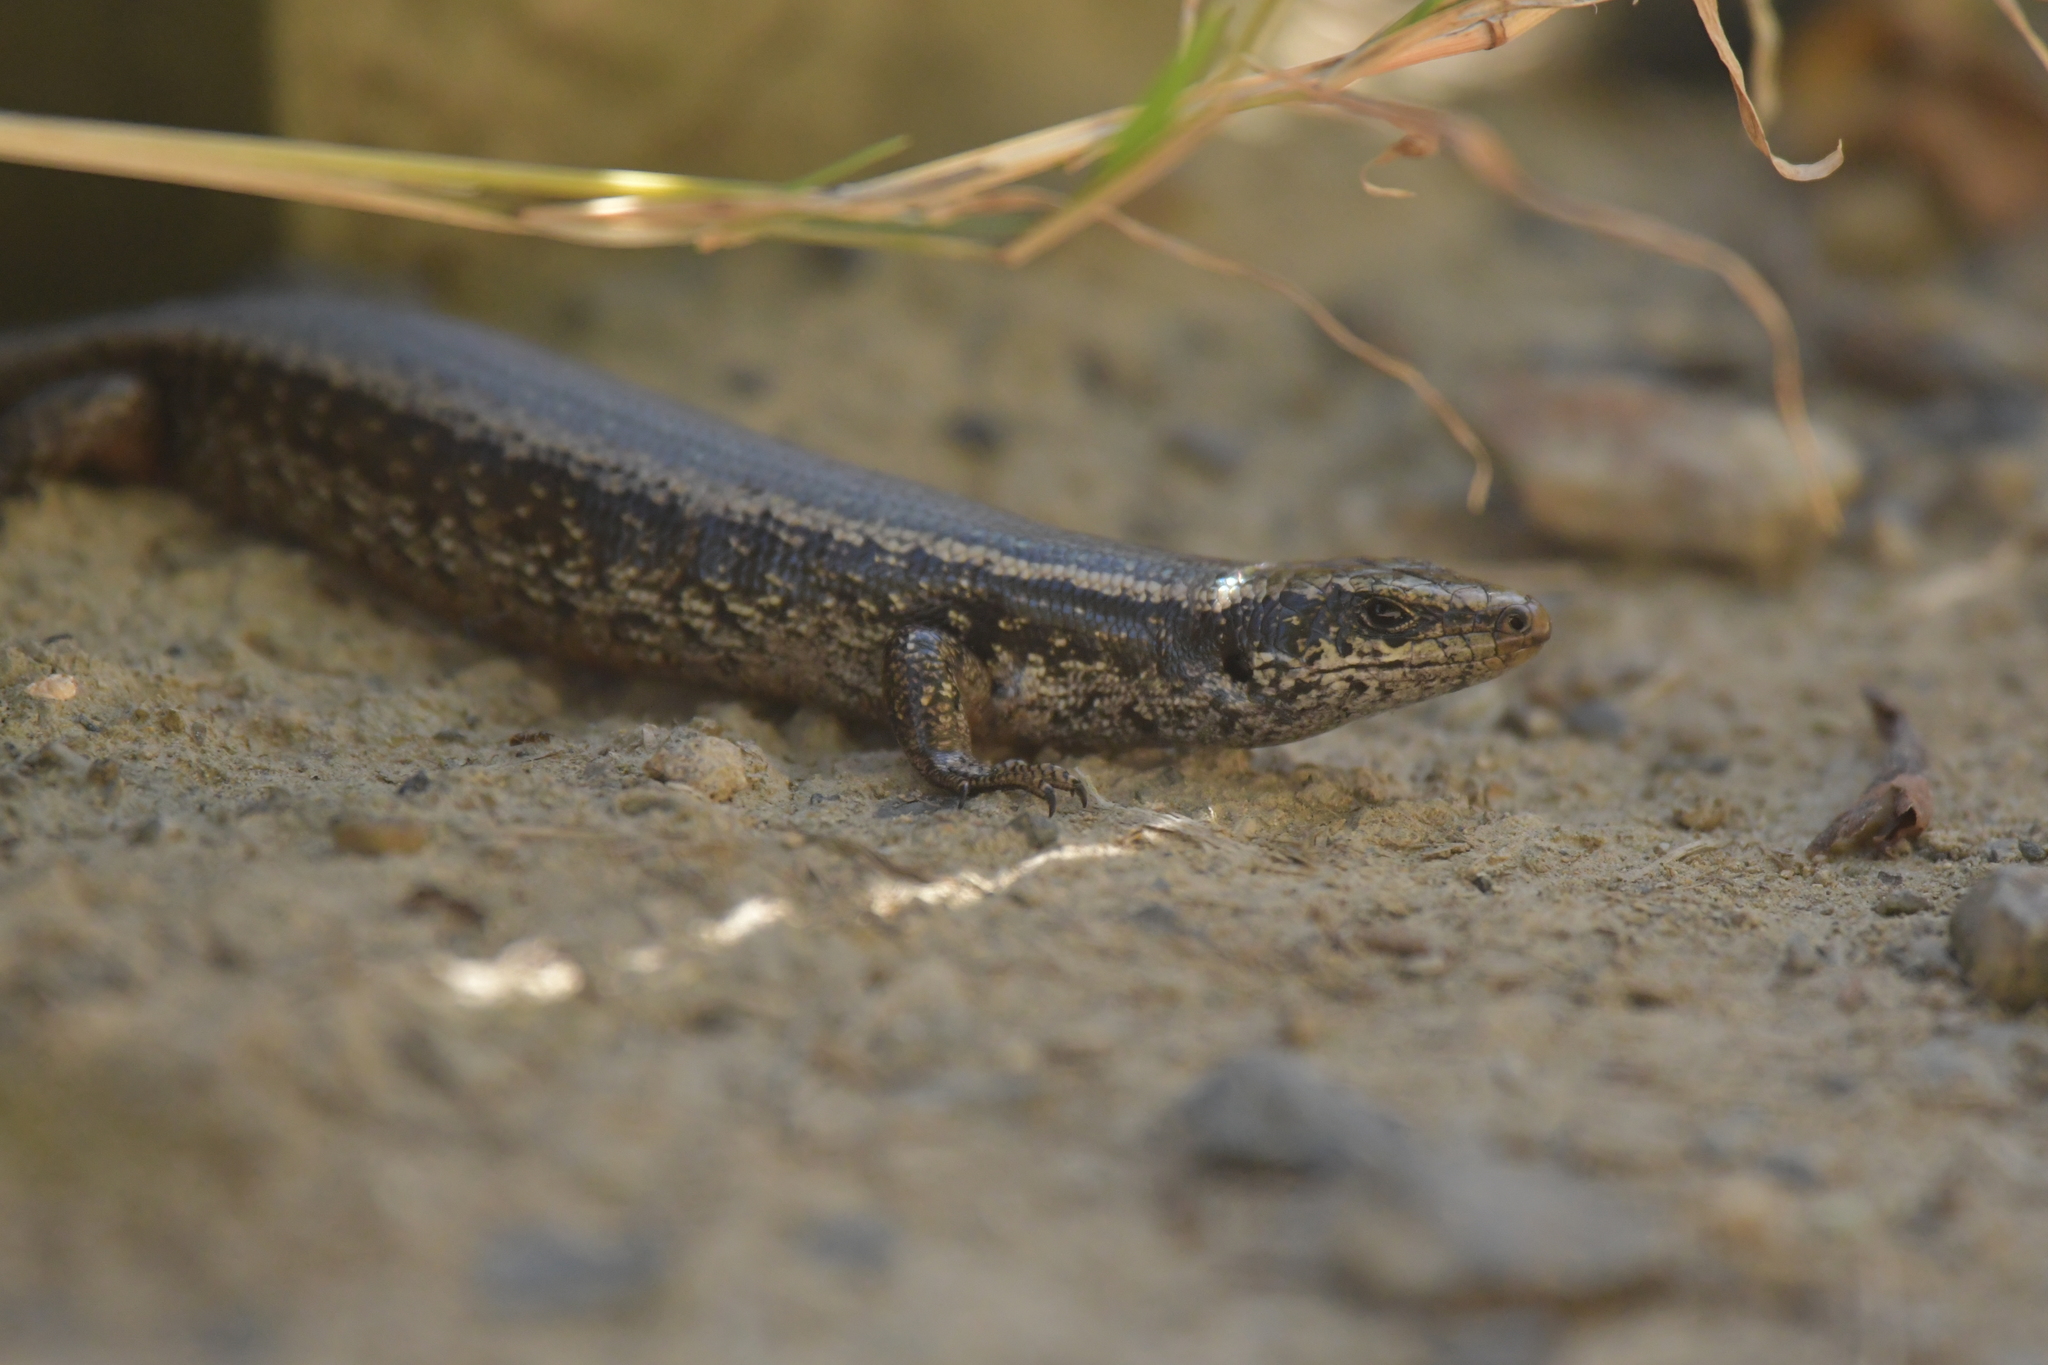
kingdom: Animalia
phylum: Chordata
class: Squamata
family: Scincidae
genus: Oligosoma
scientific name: Oligosoma kokowai
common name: Northern spotted skink
